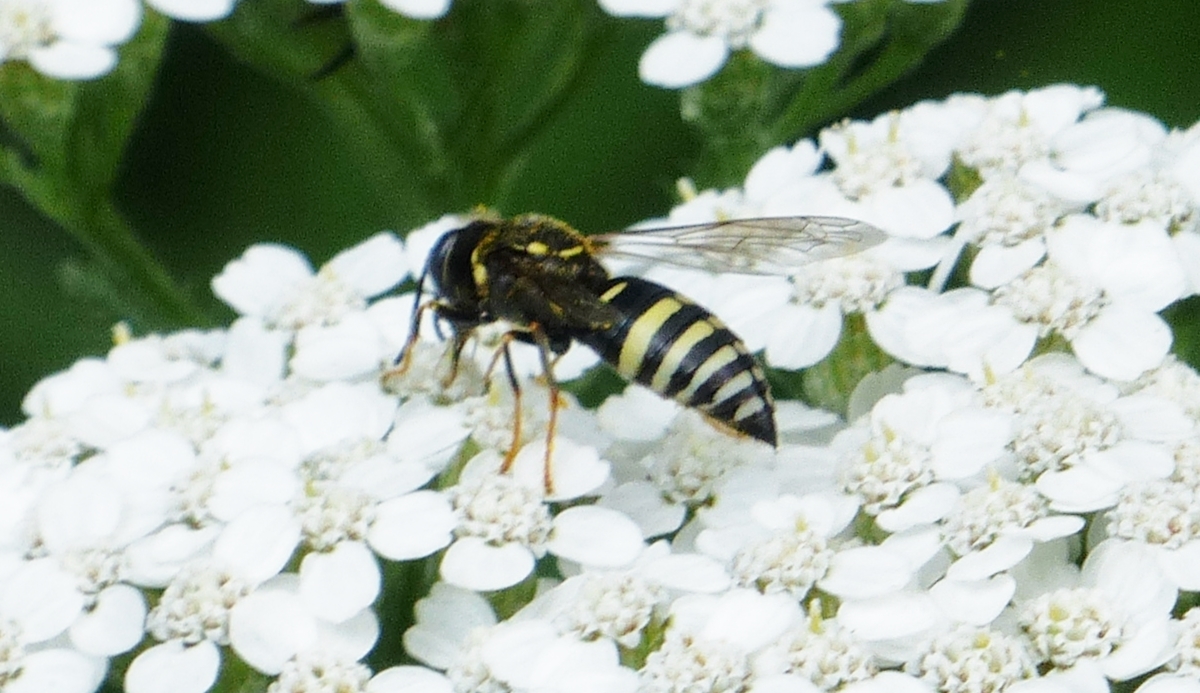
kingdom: Animalia
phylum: Arthropoda
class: Insecta
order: Hymenoptera
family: Crabronidae
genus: Bicyrtes
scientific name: Bicyrtes ventralis
